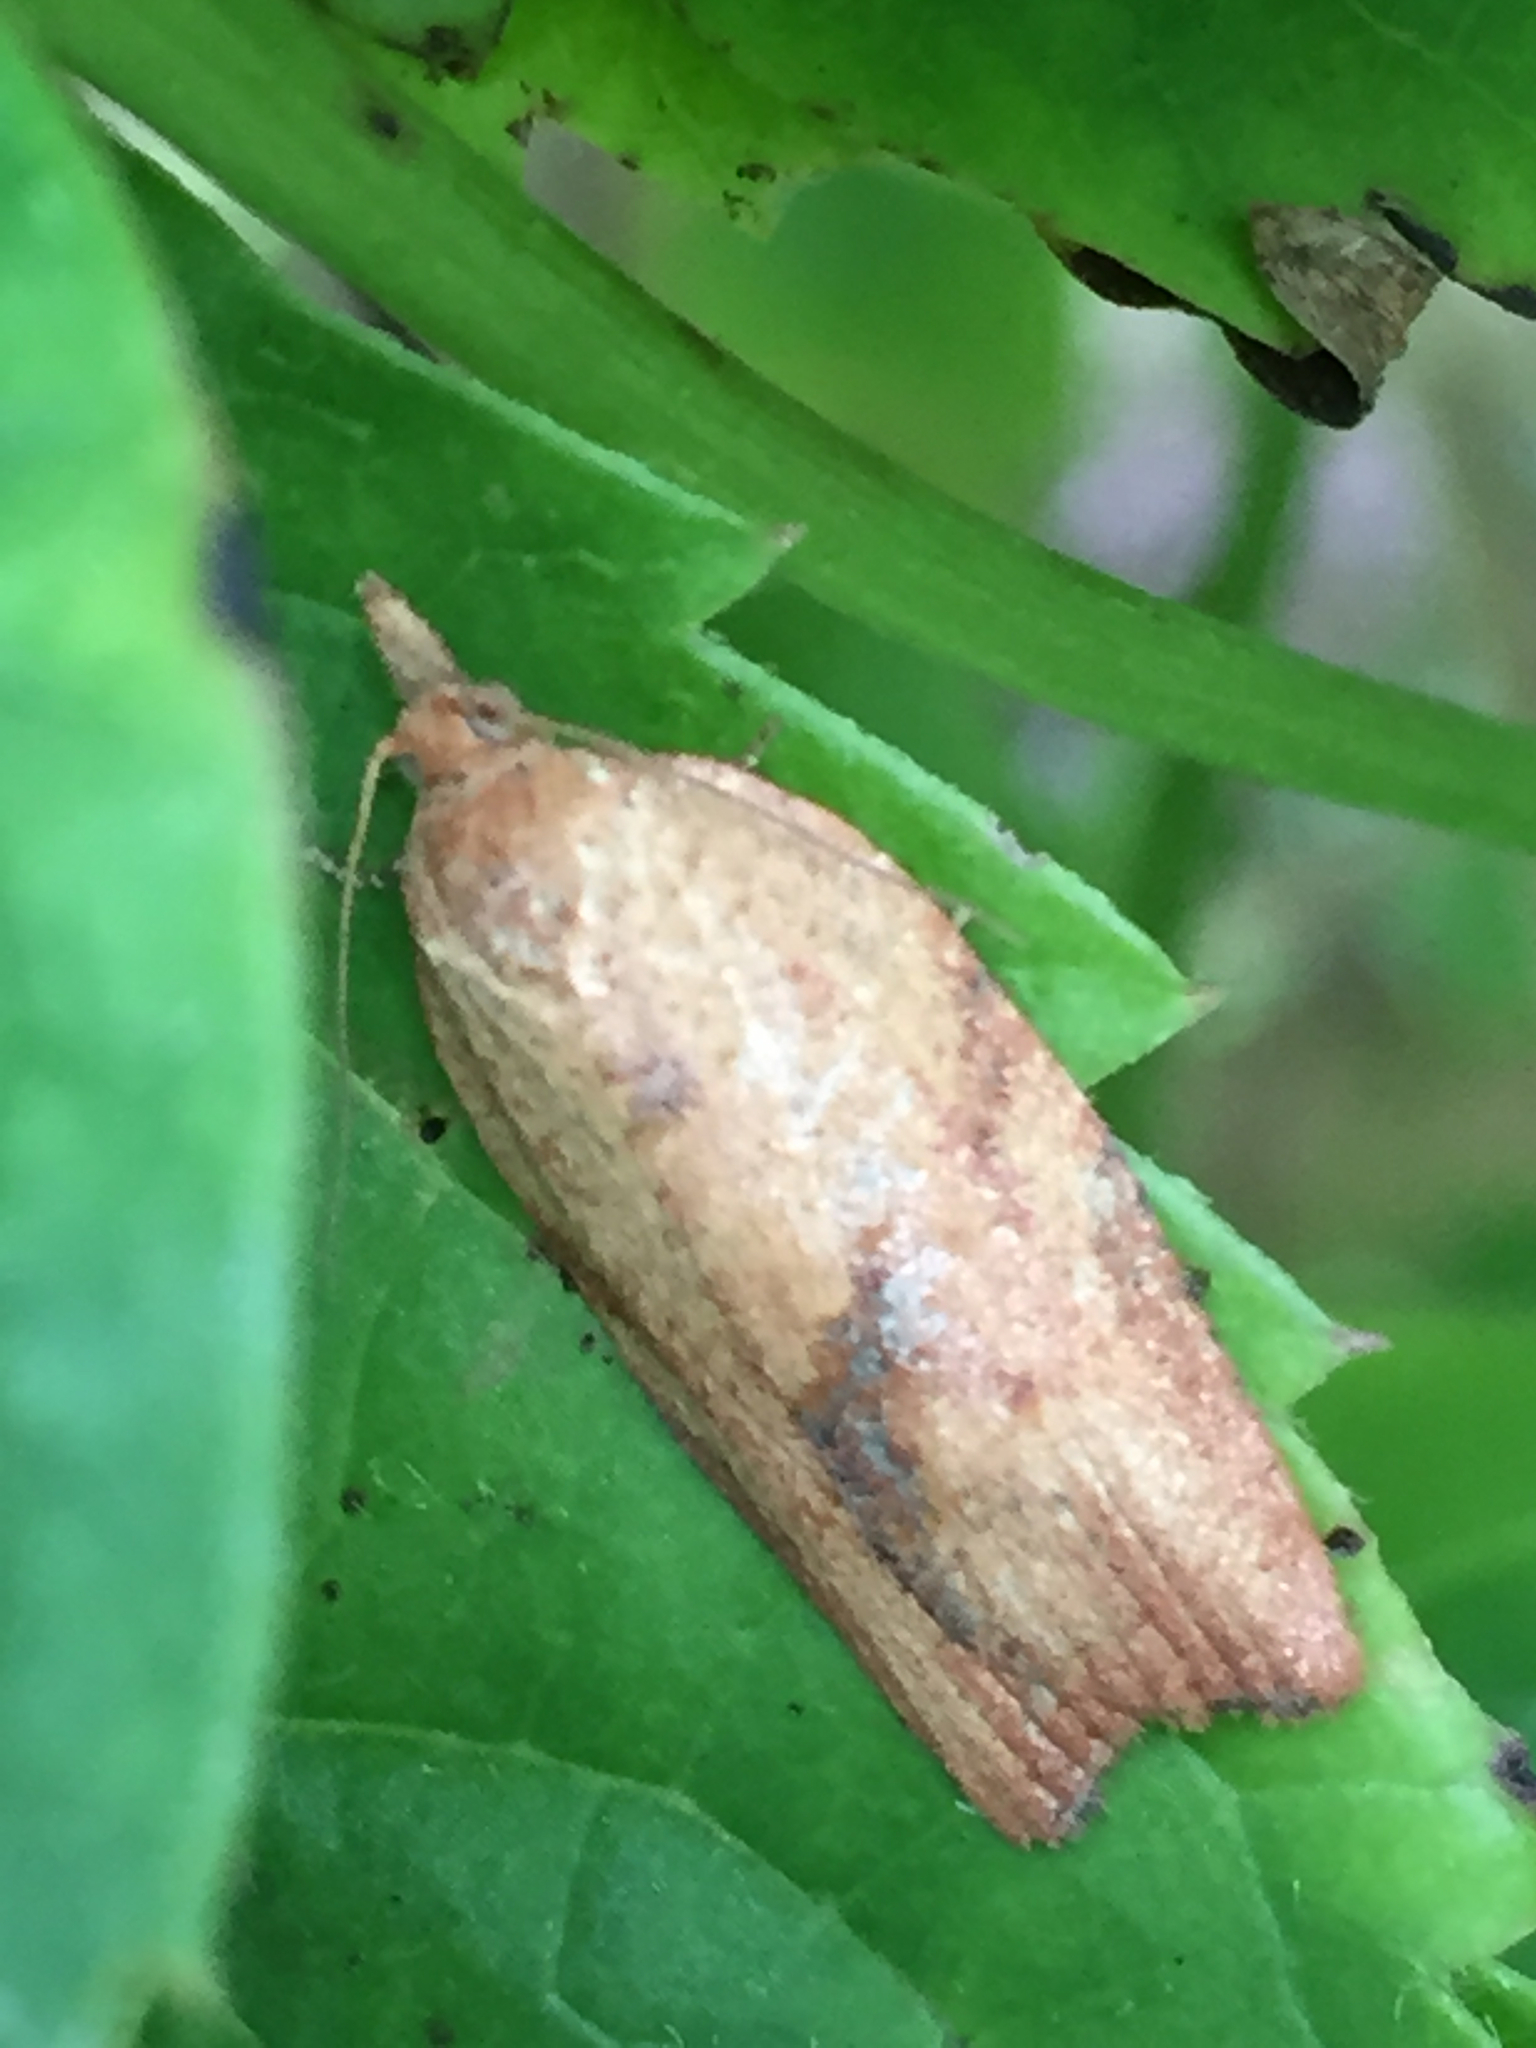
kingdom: Animalia
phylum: Arthropoda
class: Insecta
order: Lepidoptera
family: Tortricidae
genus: Epiphyas
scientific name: Epiphyas postvittana
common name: Light brown apple moth
